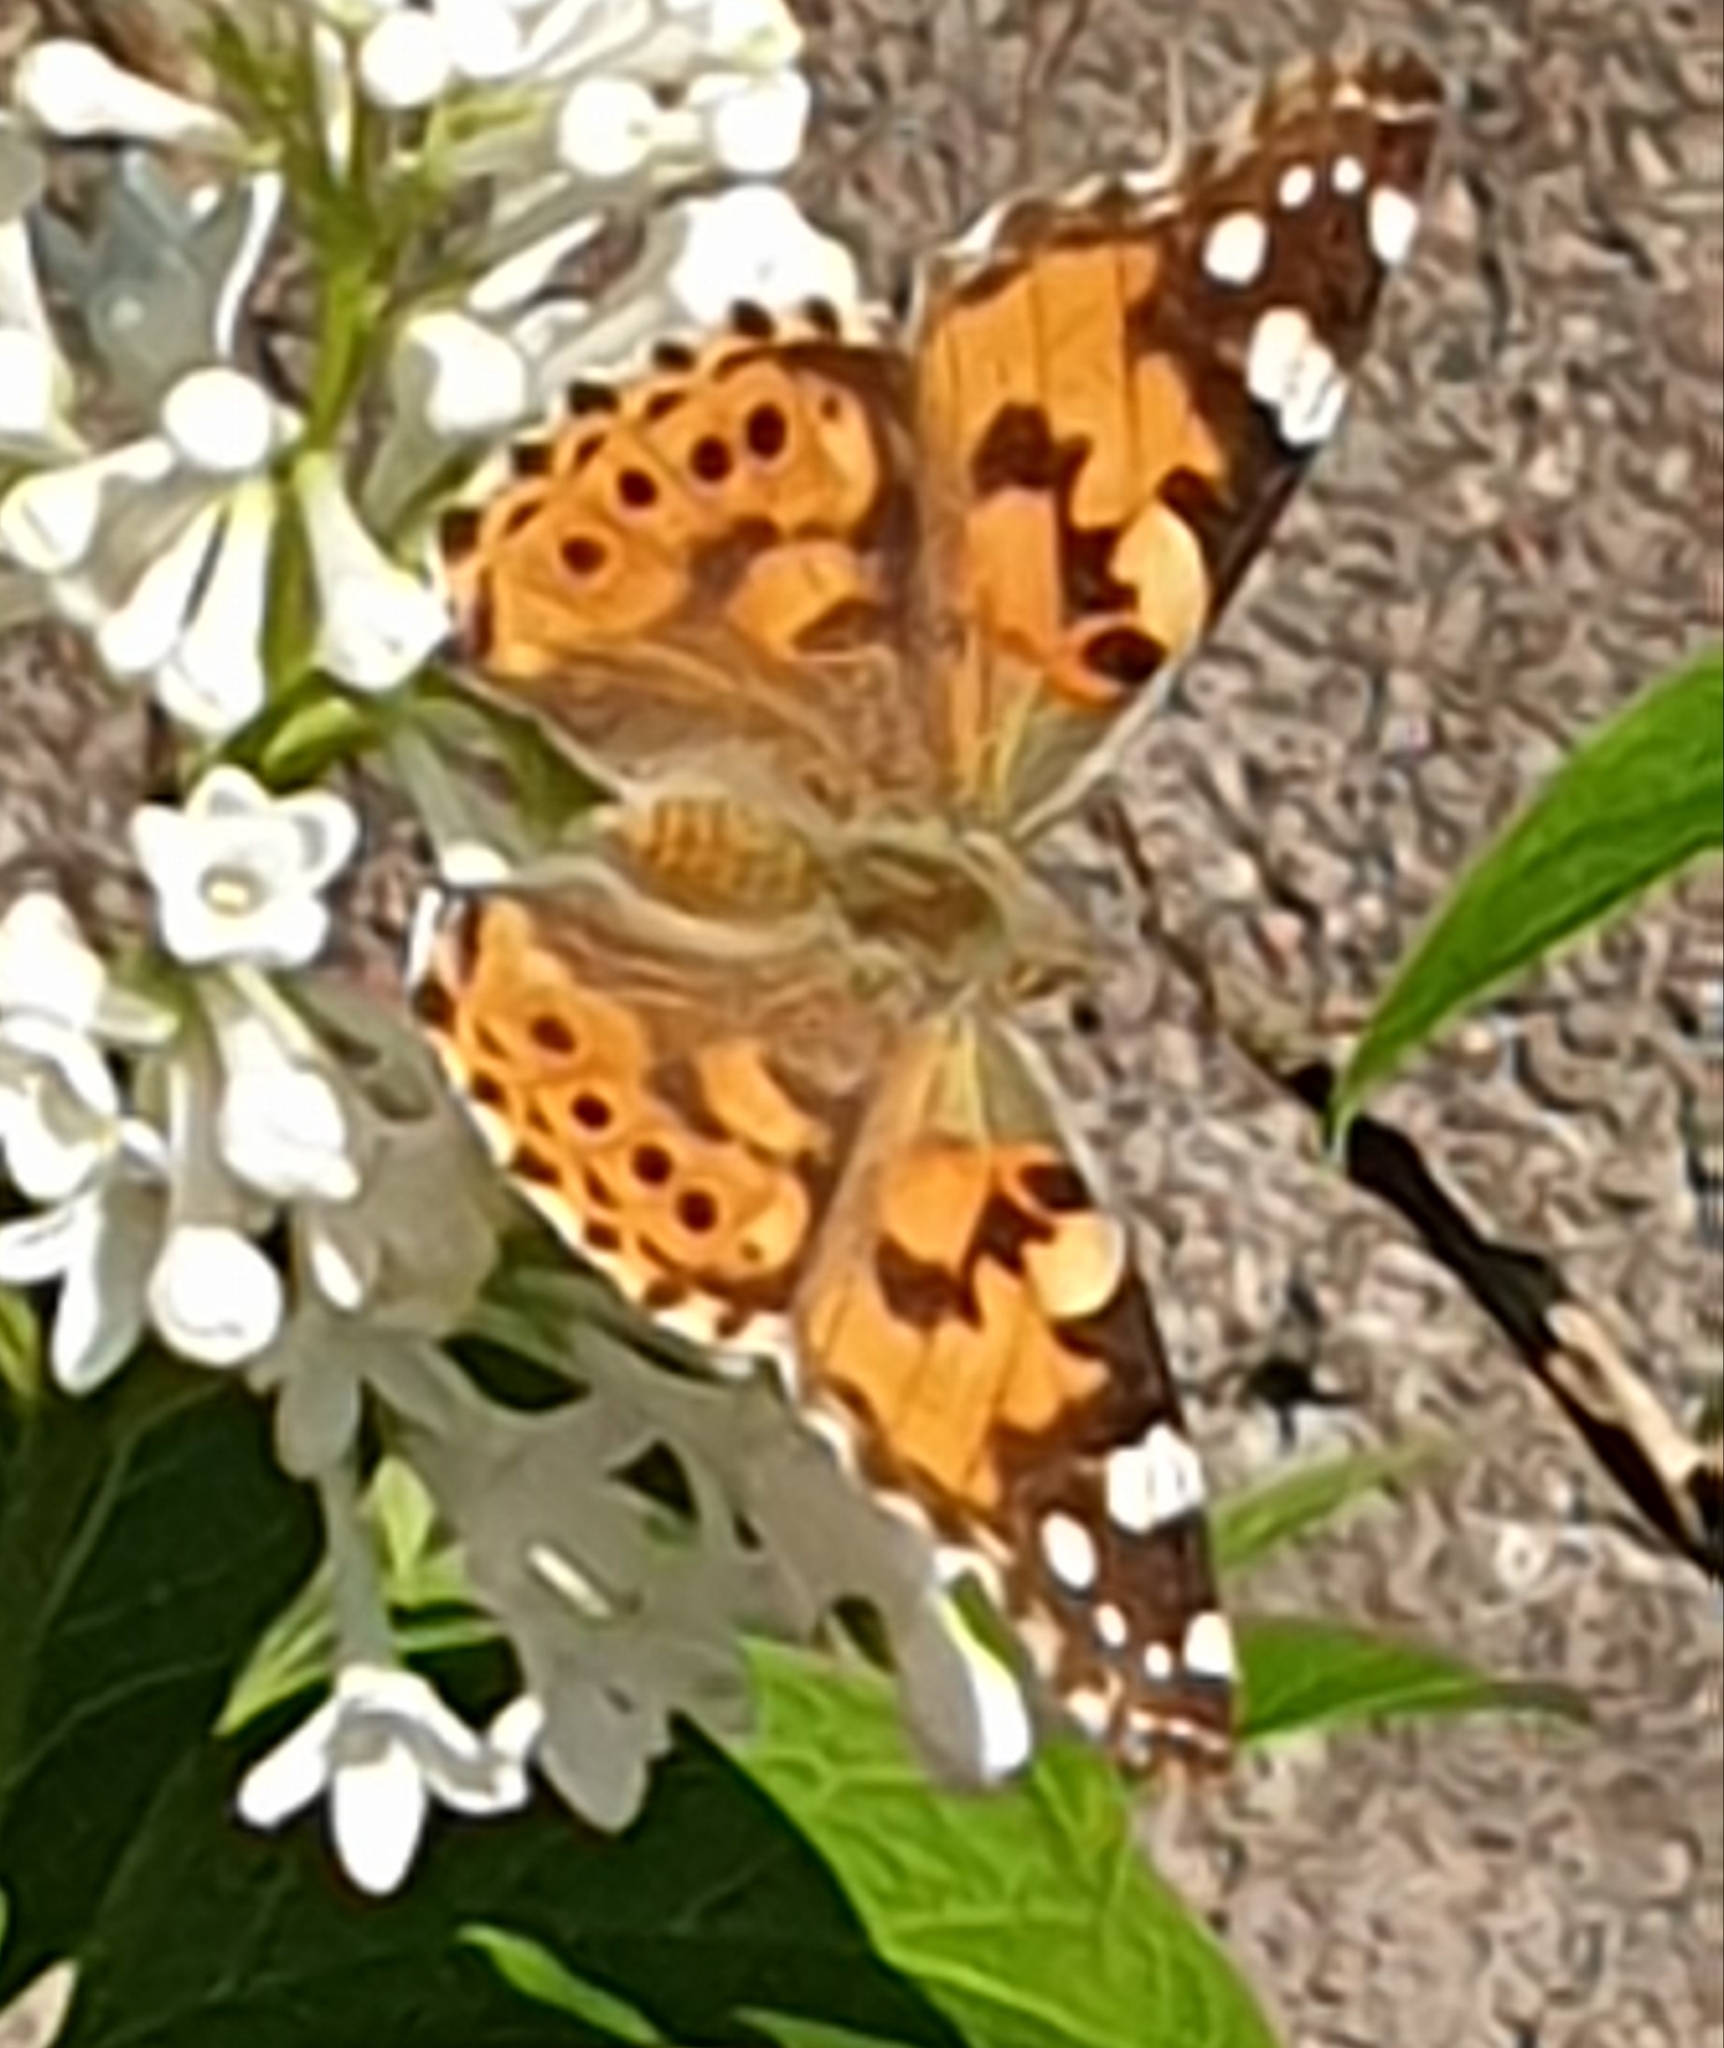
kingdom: Animalia
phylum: Arthropoda
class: Insecta
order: Lepidoptera
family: Nymphalidae
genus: Vanessa
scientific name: Vanessa cardui
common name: Painted lady
